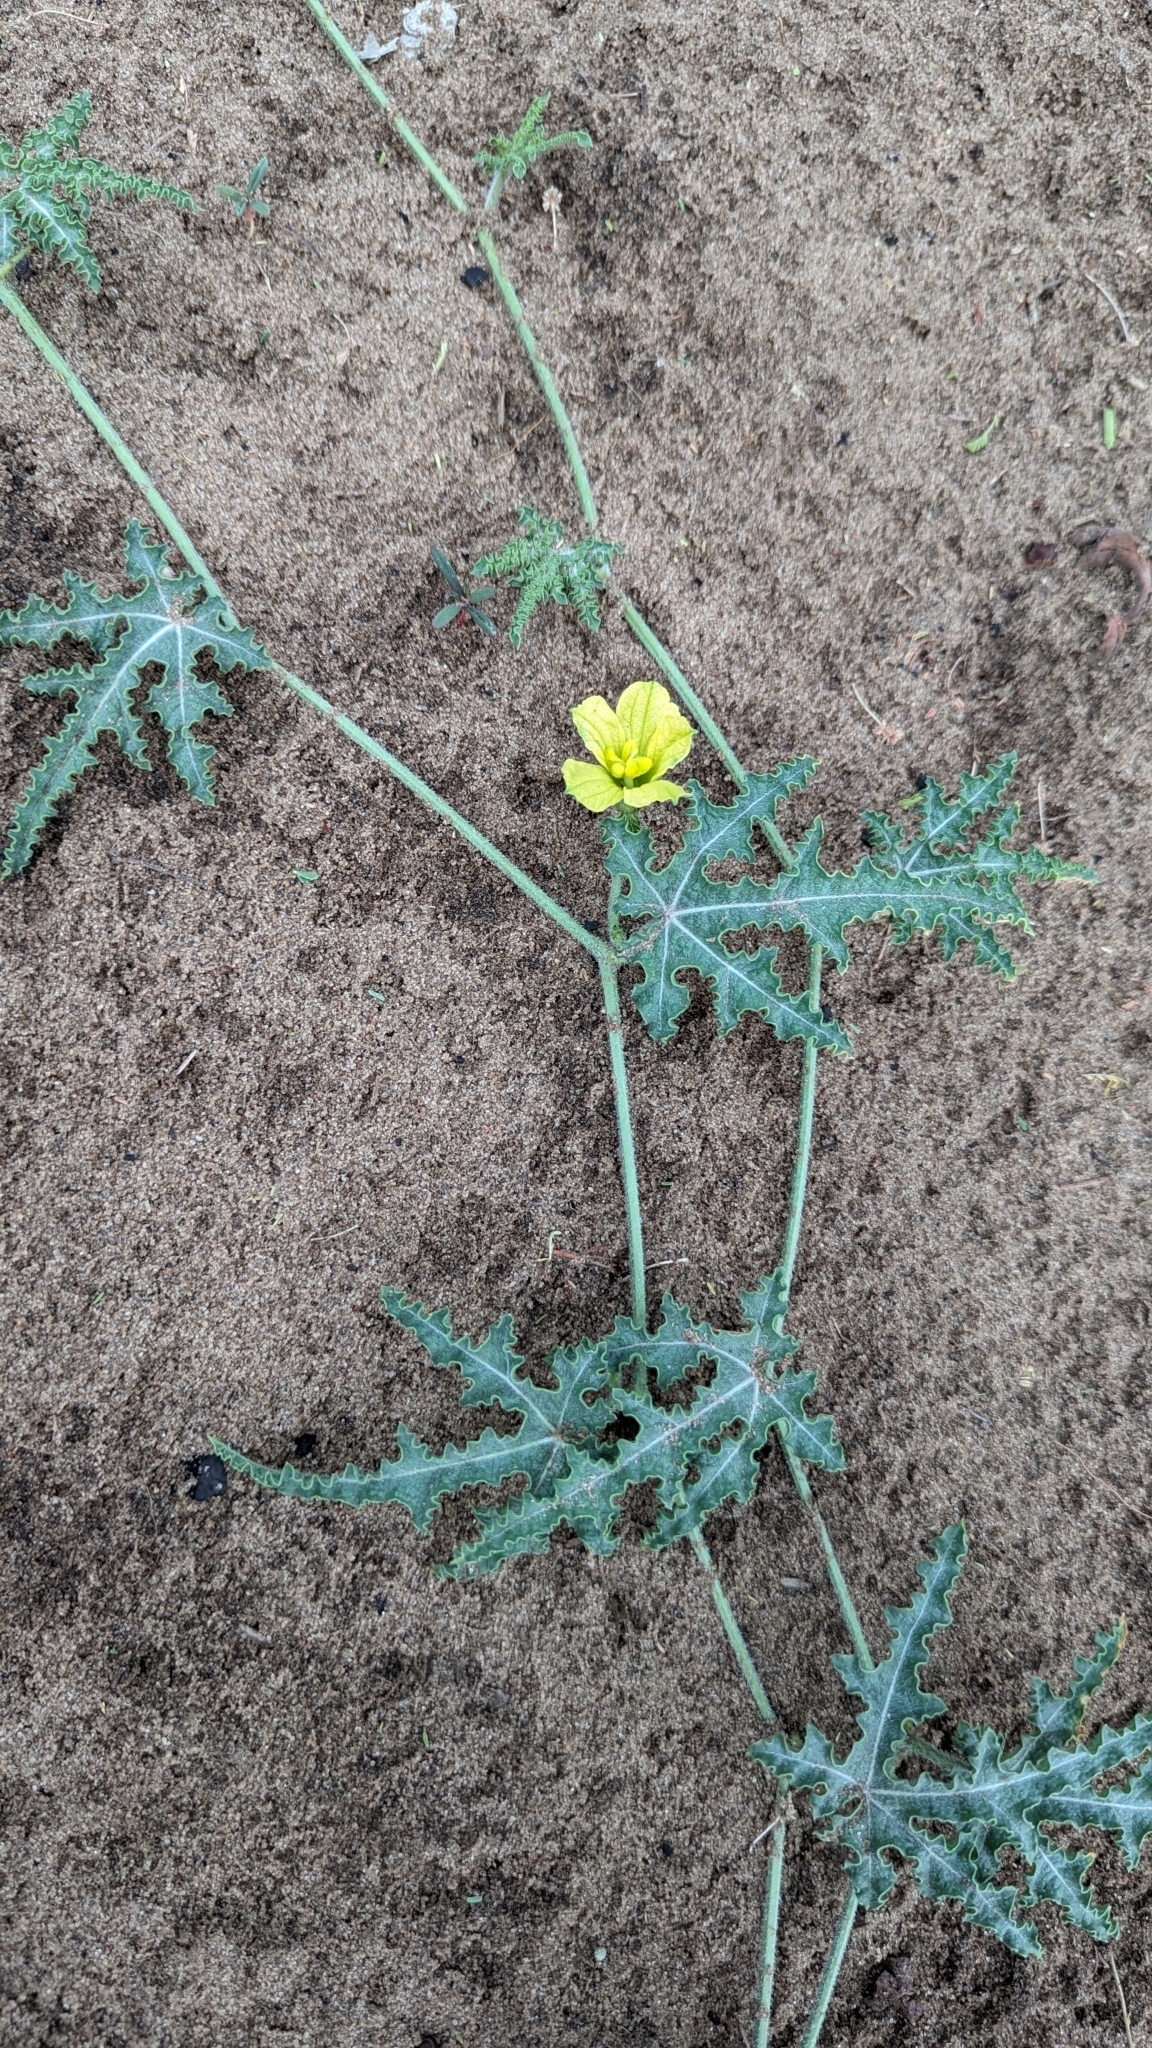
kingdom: Plantae
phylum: Tracheophyta
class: Magnoliopsida
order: Cucurbitales
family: Cucurbitaceae
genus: Citrullus
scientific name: Citrullus naudinianus
